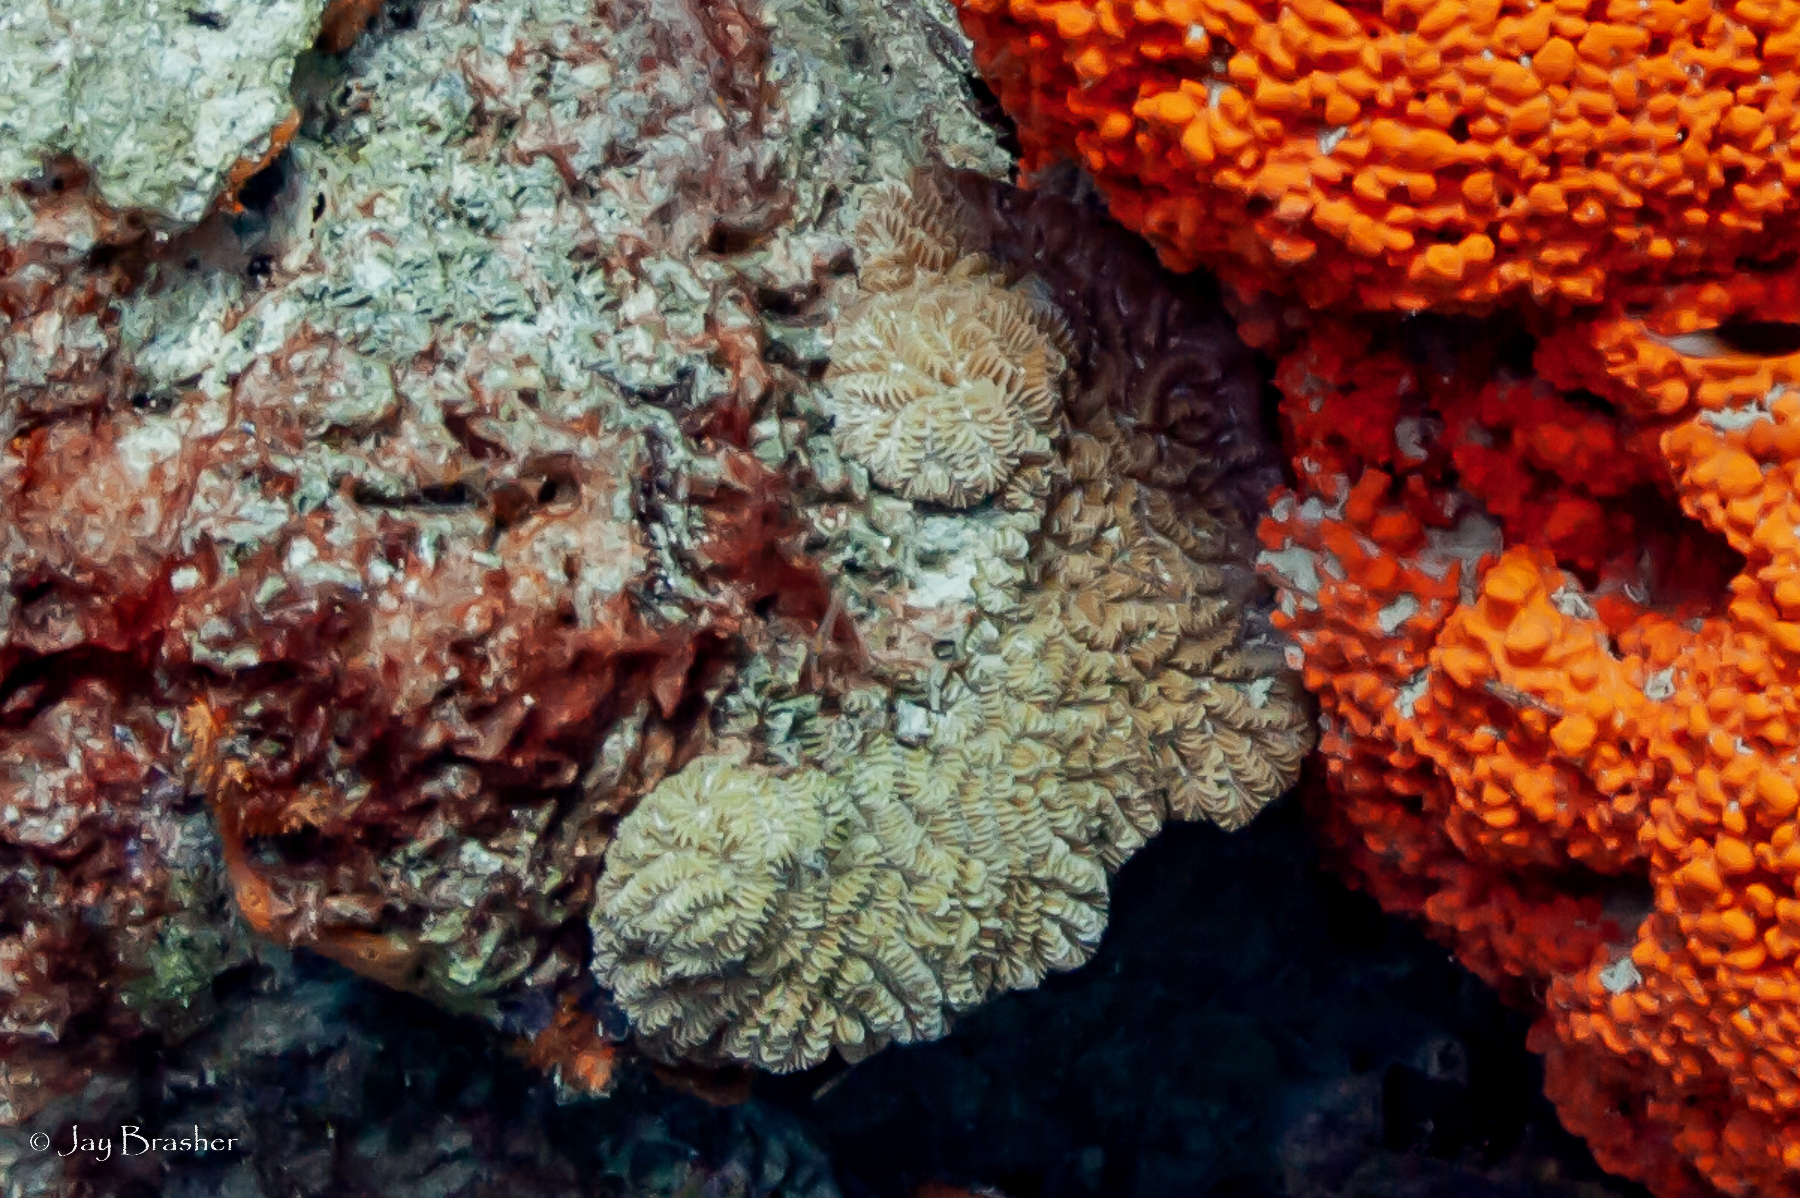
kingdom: Animalia
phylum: Cnidaria
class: Anthozoa
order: Scleractinia
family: Meandrinidae
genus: Meandrina
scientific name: Meandrina meandrites
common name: Maze coral
